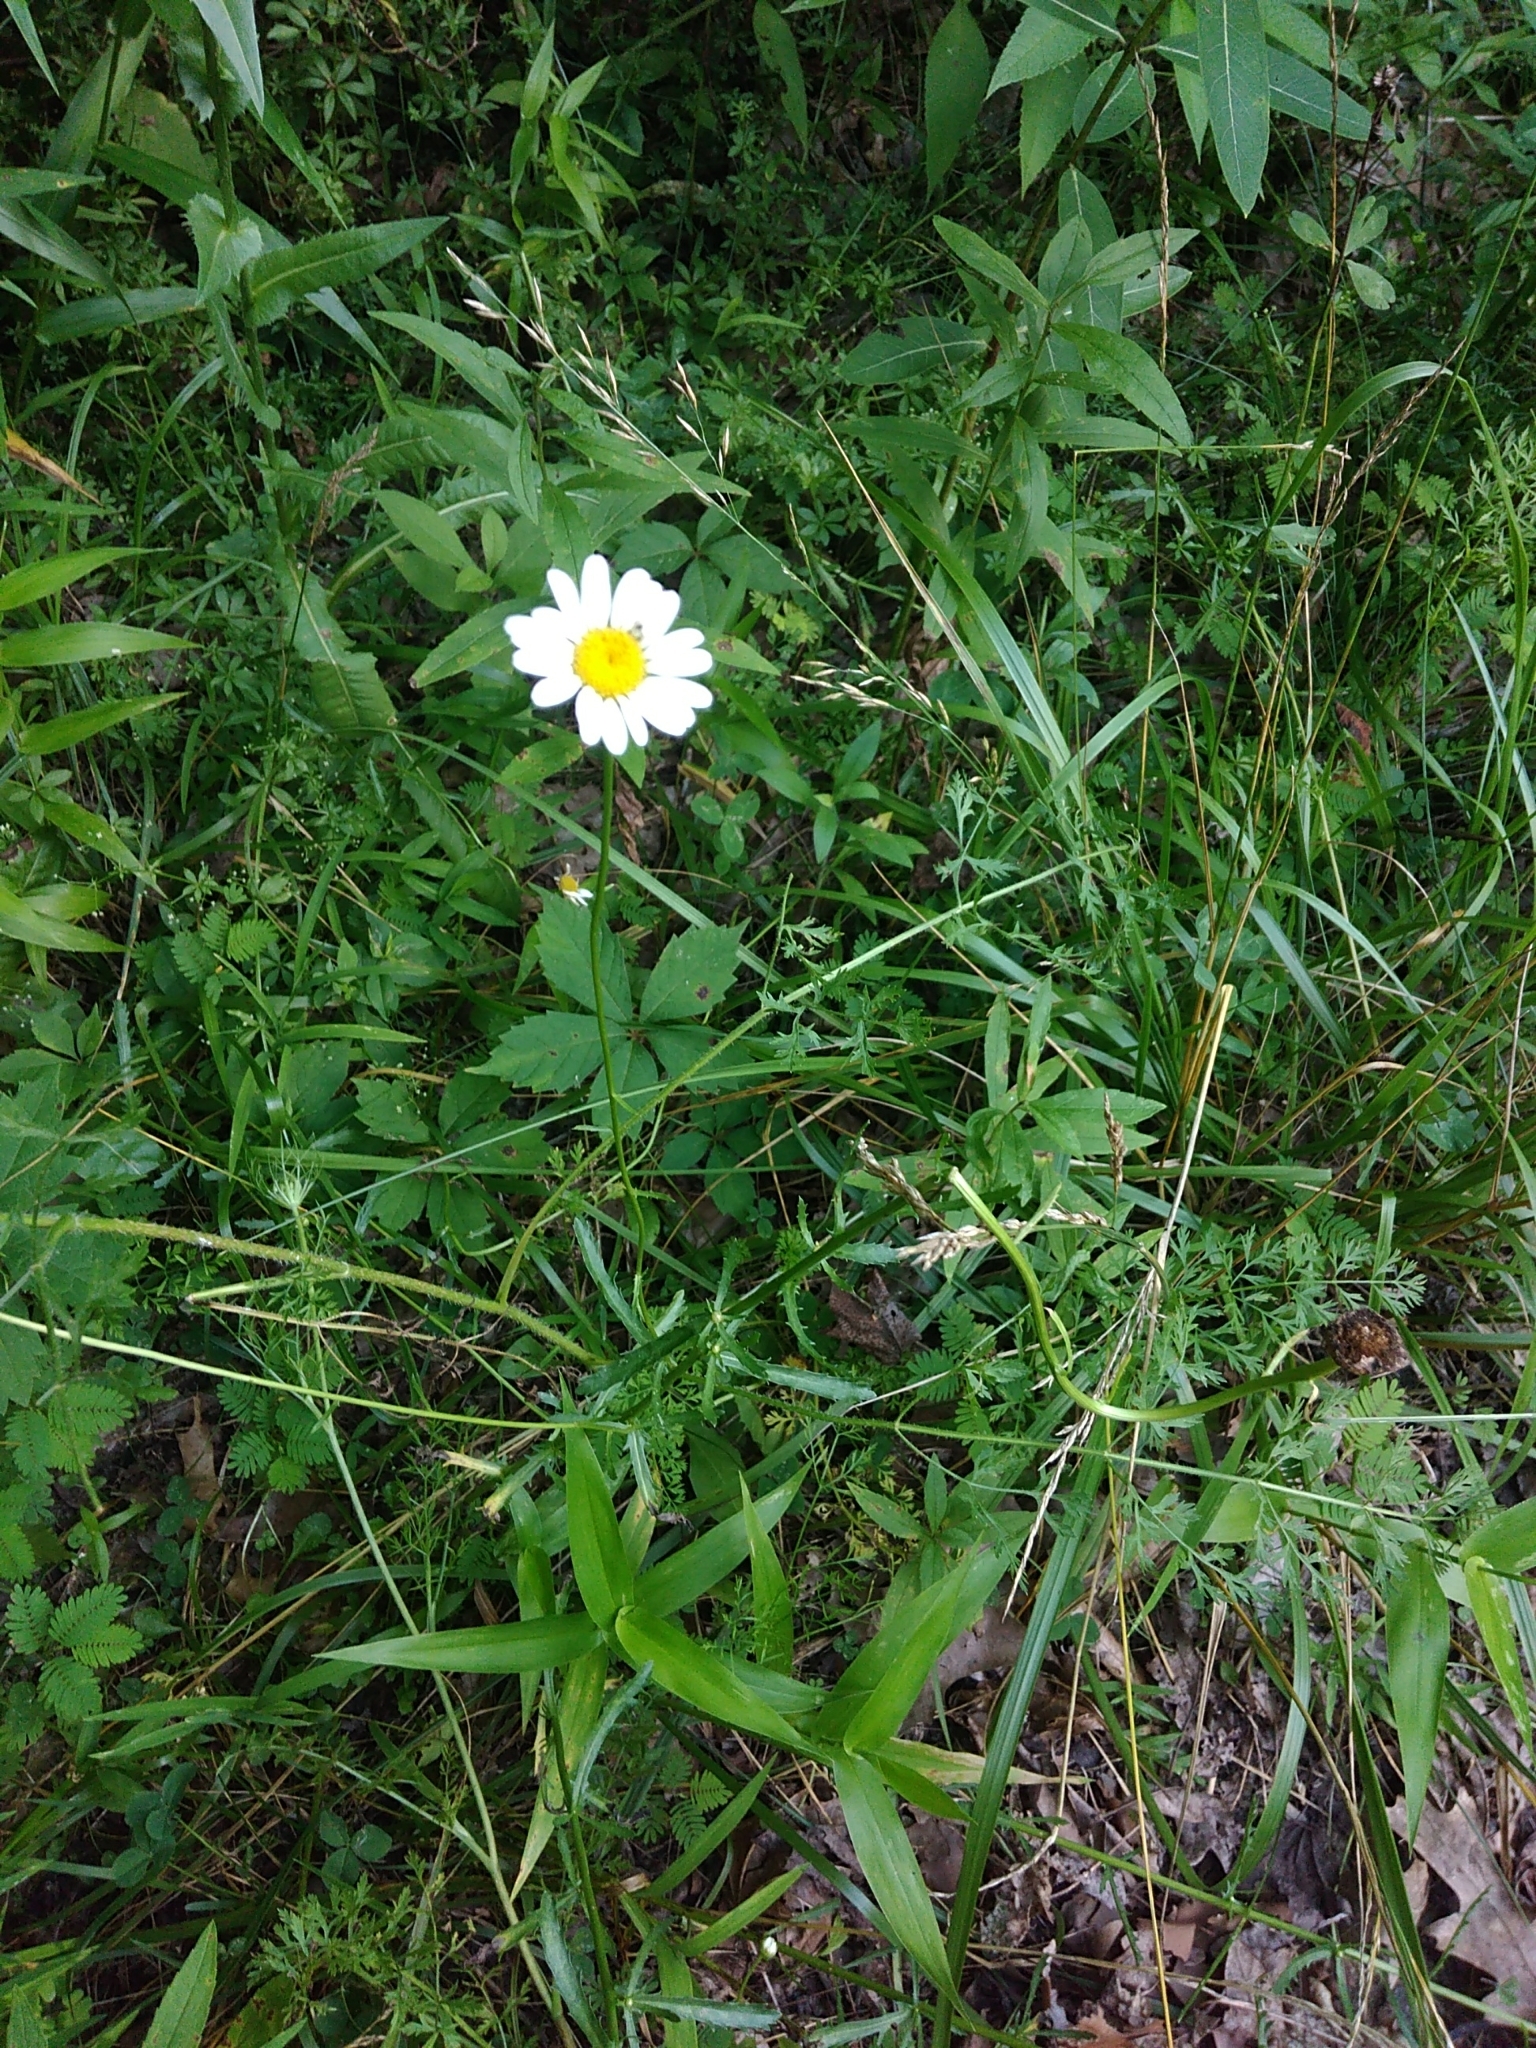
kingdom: Plantae
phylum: Tracheophyta
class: Magnoliopsida
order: Asterales
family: Asteraceae
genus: Leucanthemum
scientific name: Leucanthemum vulgare
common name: Oxeye daisy
